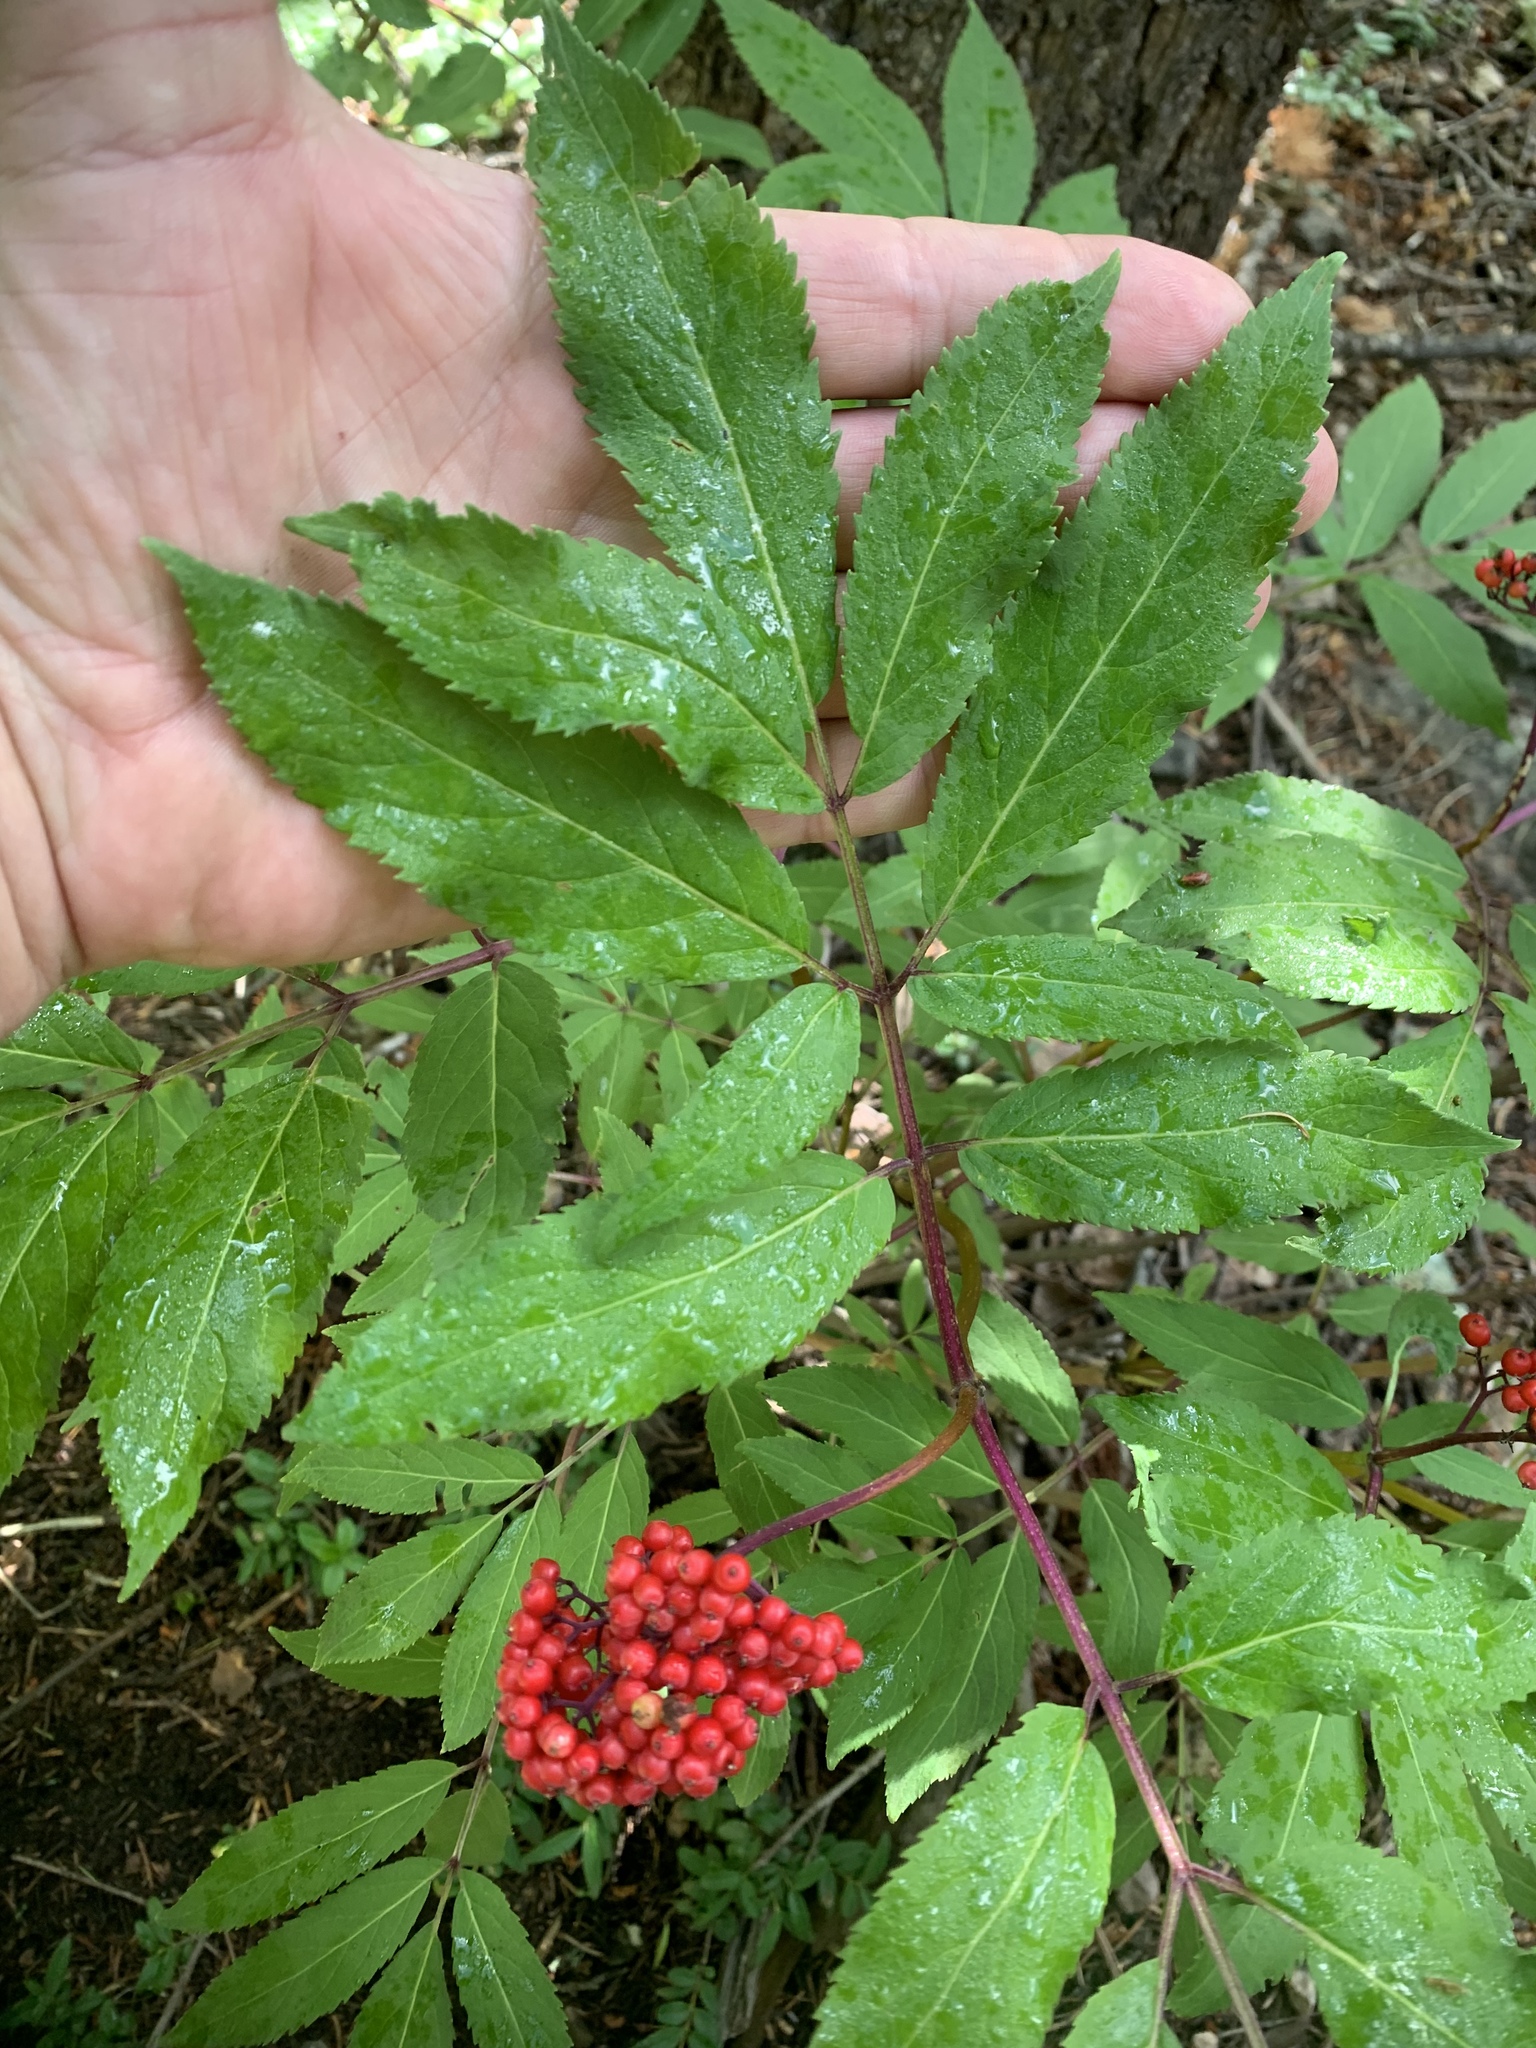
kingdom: Plantae
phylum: Tracheophyta
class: Magnoliopsida
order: Dipsacales
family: Viburnaceae
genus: Sambucus
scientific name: Sambucus racemosa
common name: Red-berried elder
